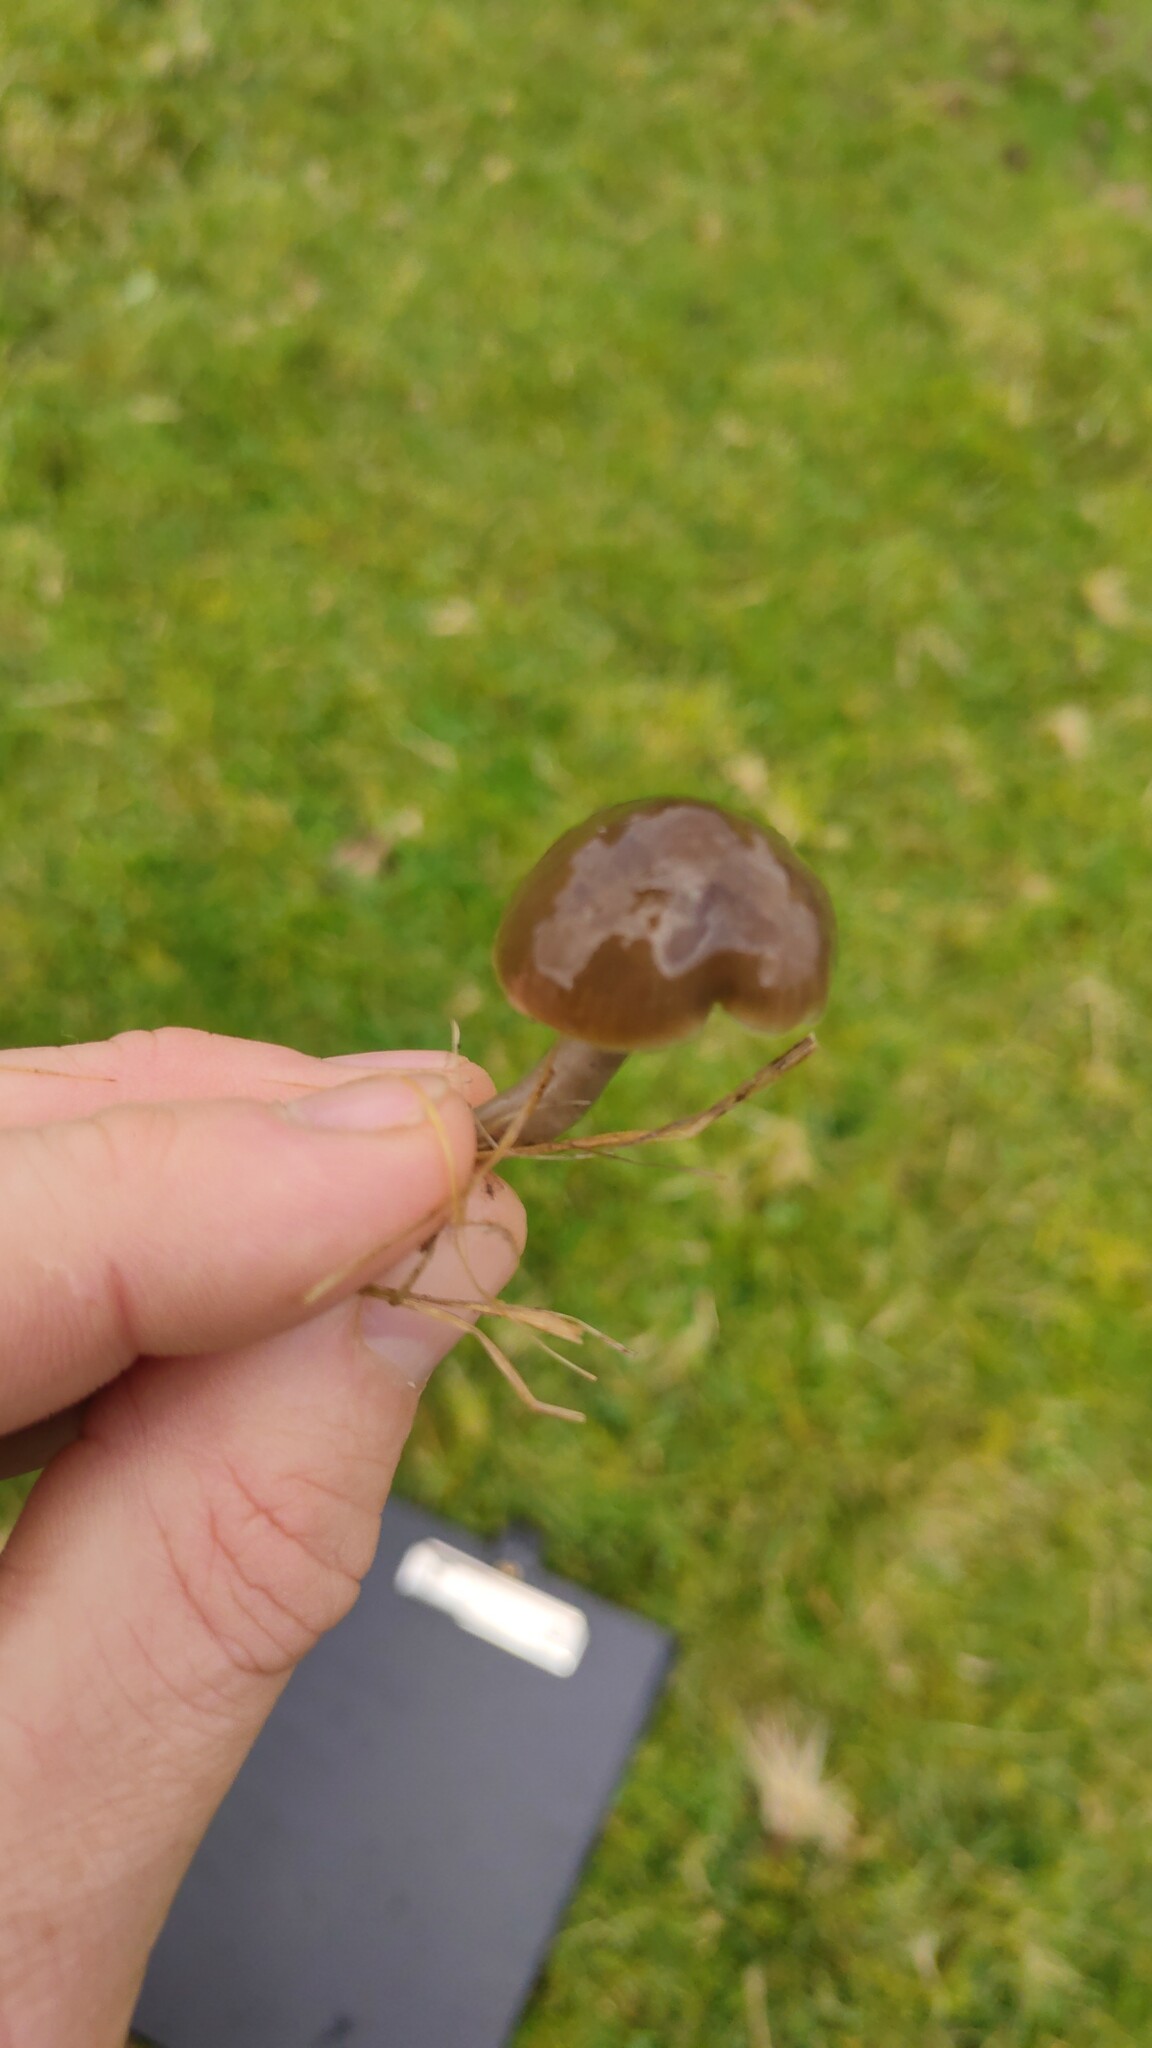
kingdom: Fungi
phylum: Basidiomycota
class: Agaricomycetes
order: Agaricales
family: Hygrophoraceae
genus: Gliophorus
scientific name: Gliophorus irrigatus
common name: Slimy waxcap
